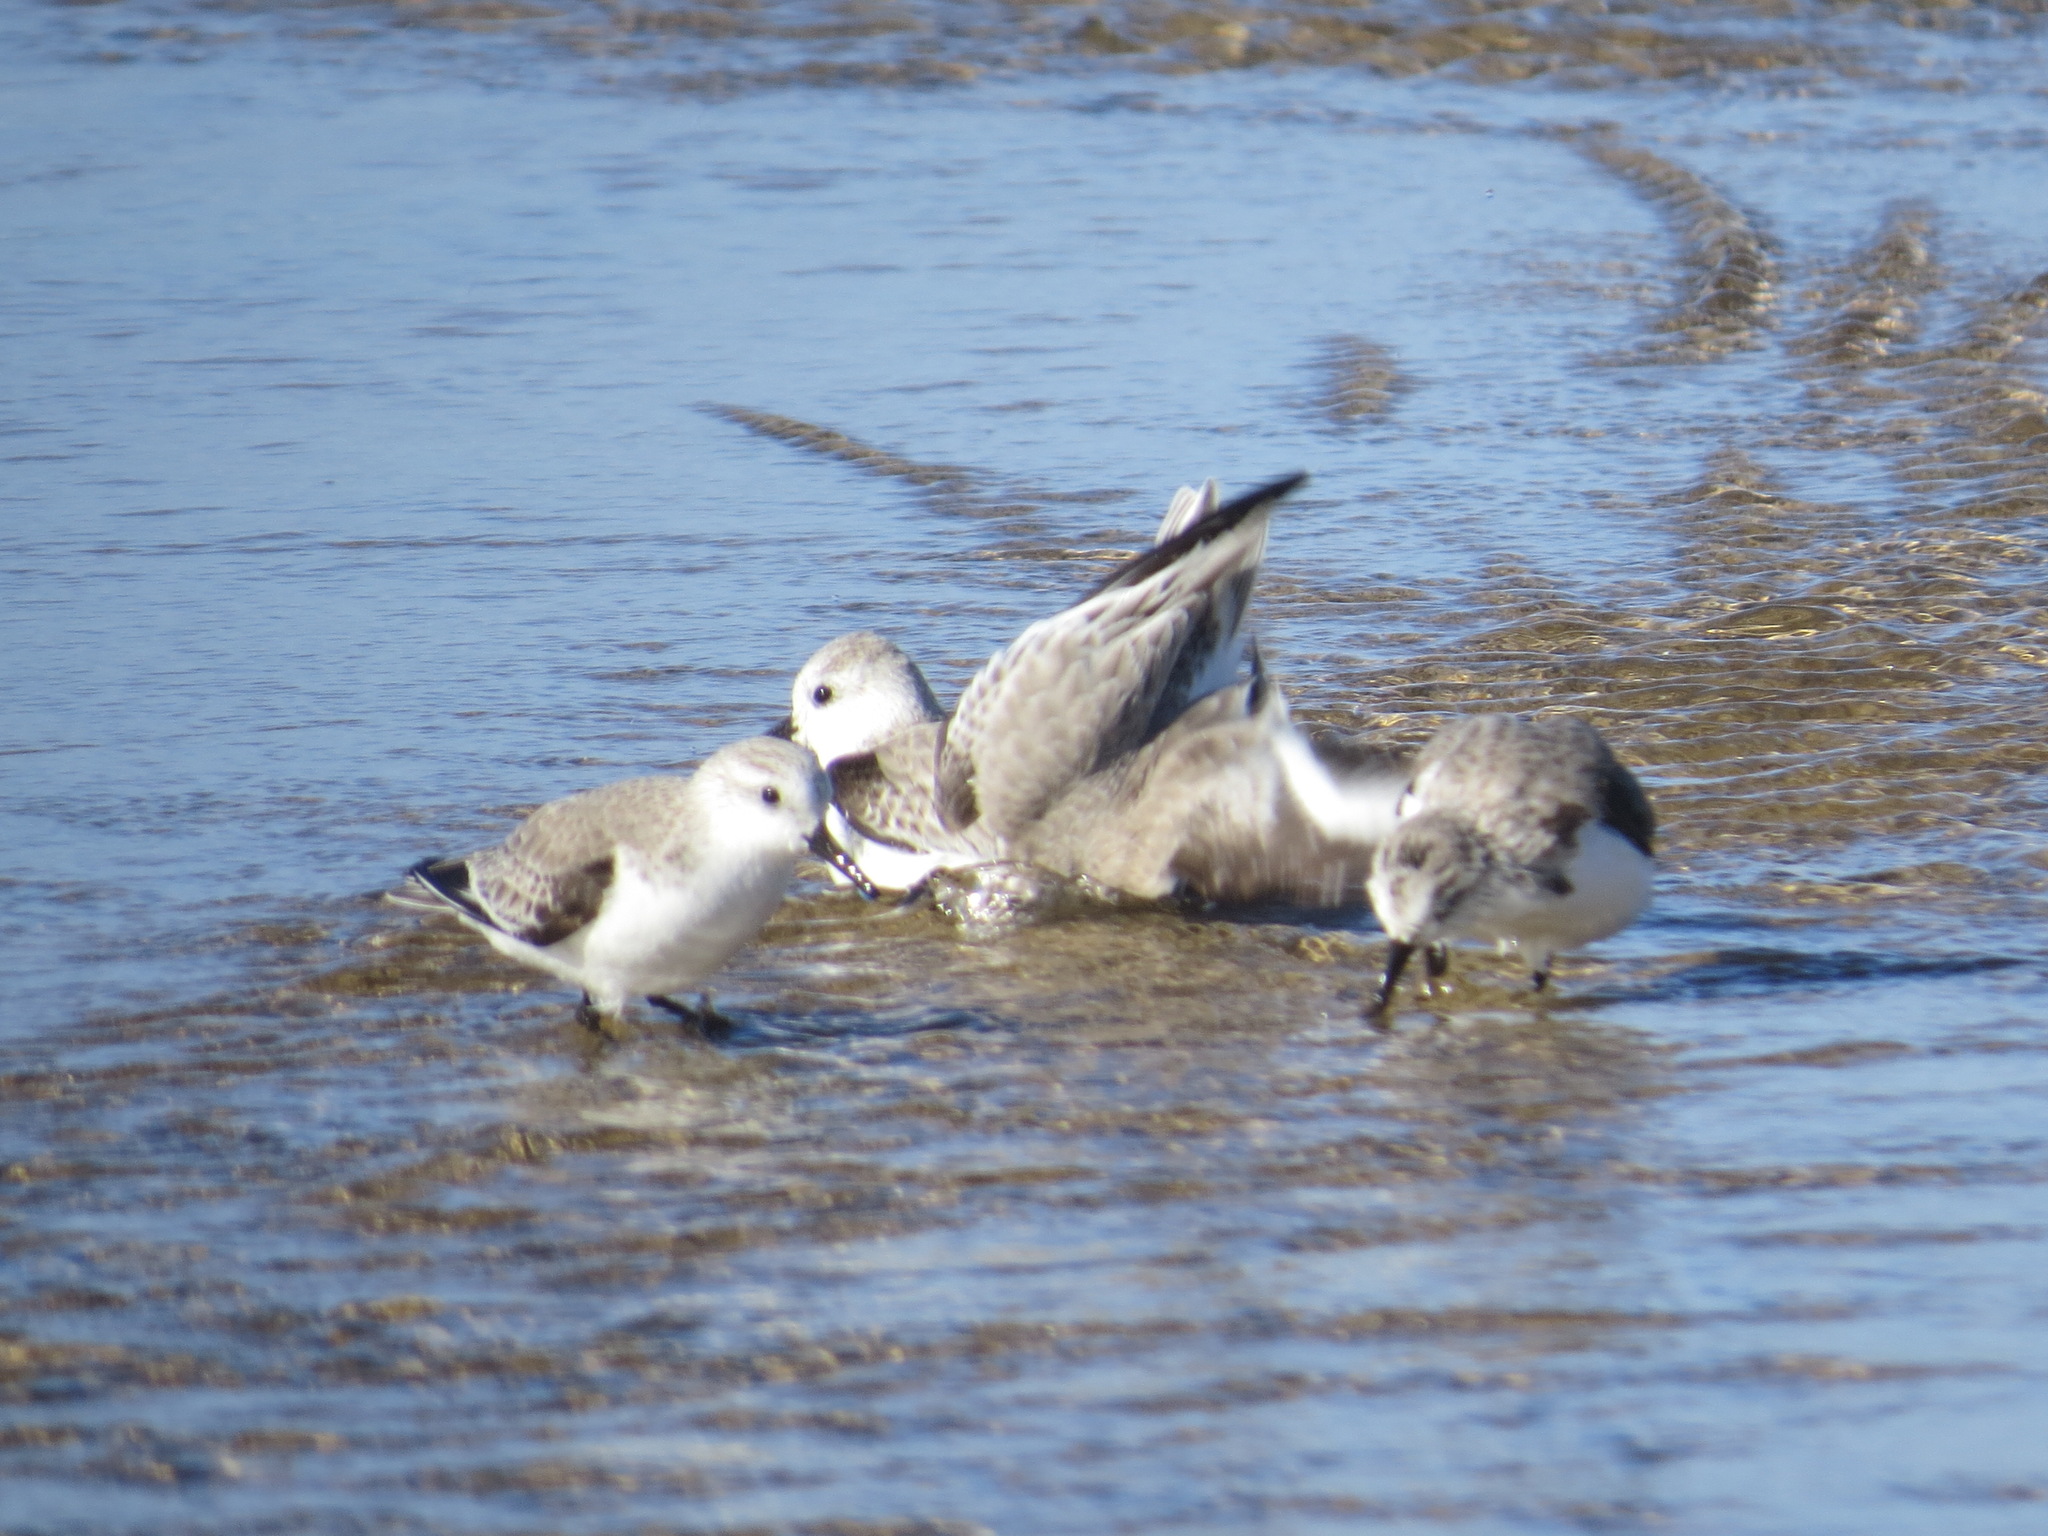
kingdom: Animalia
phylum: Chordata
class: Aves
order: Charadriiformes
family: Scolopacidae
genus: Calidris
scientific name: Calidris alba
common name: Sanderling
